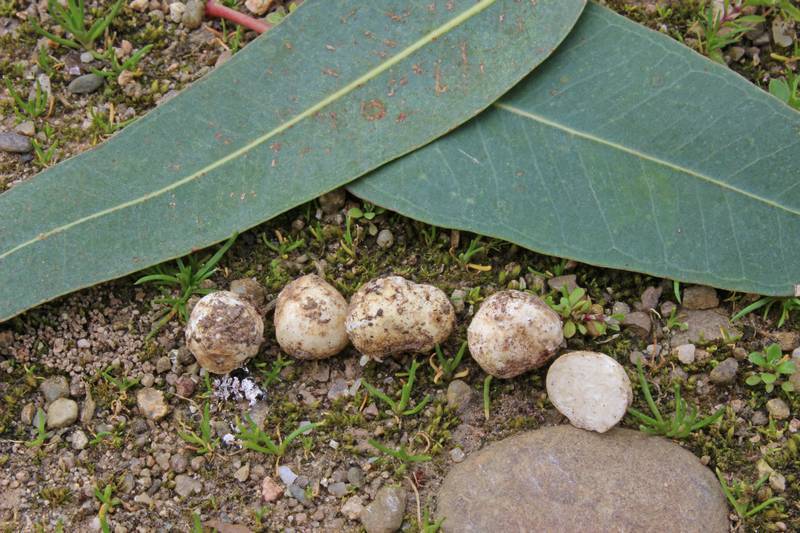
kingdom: Fungi
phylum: Ascomycota
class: Pezizomycetes
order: Pezizales
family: Tuberaceae
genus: Reddellomyces
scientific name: Reddellomyces donkii
